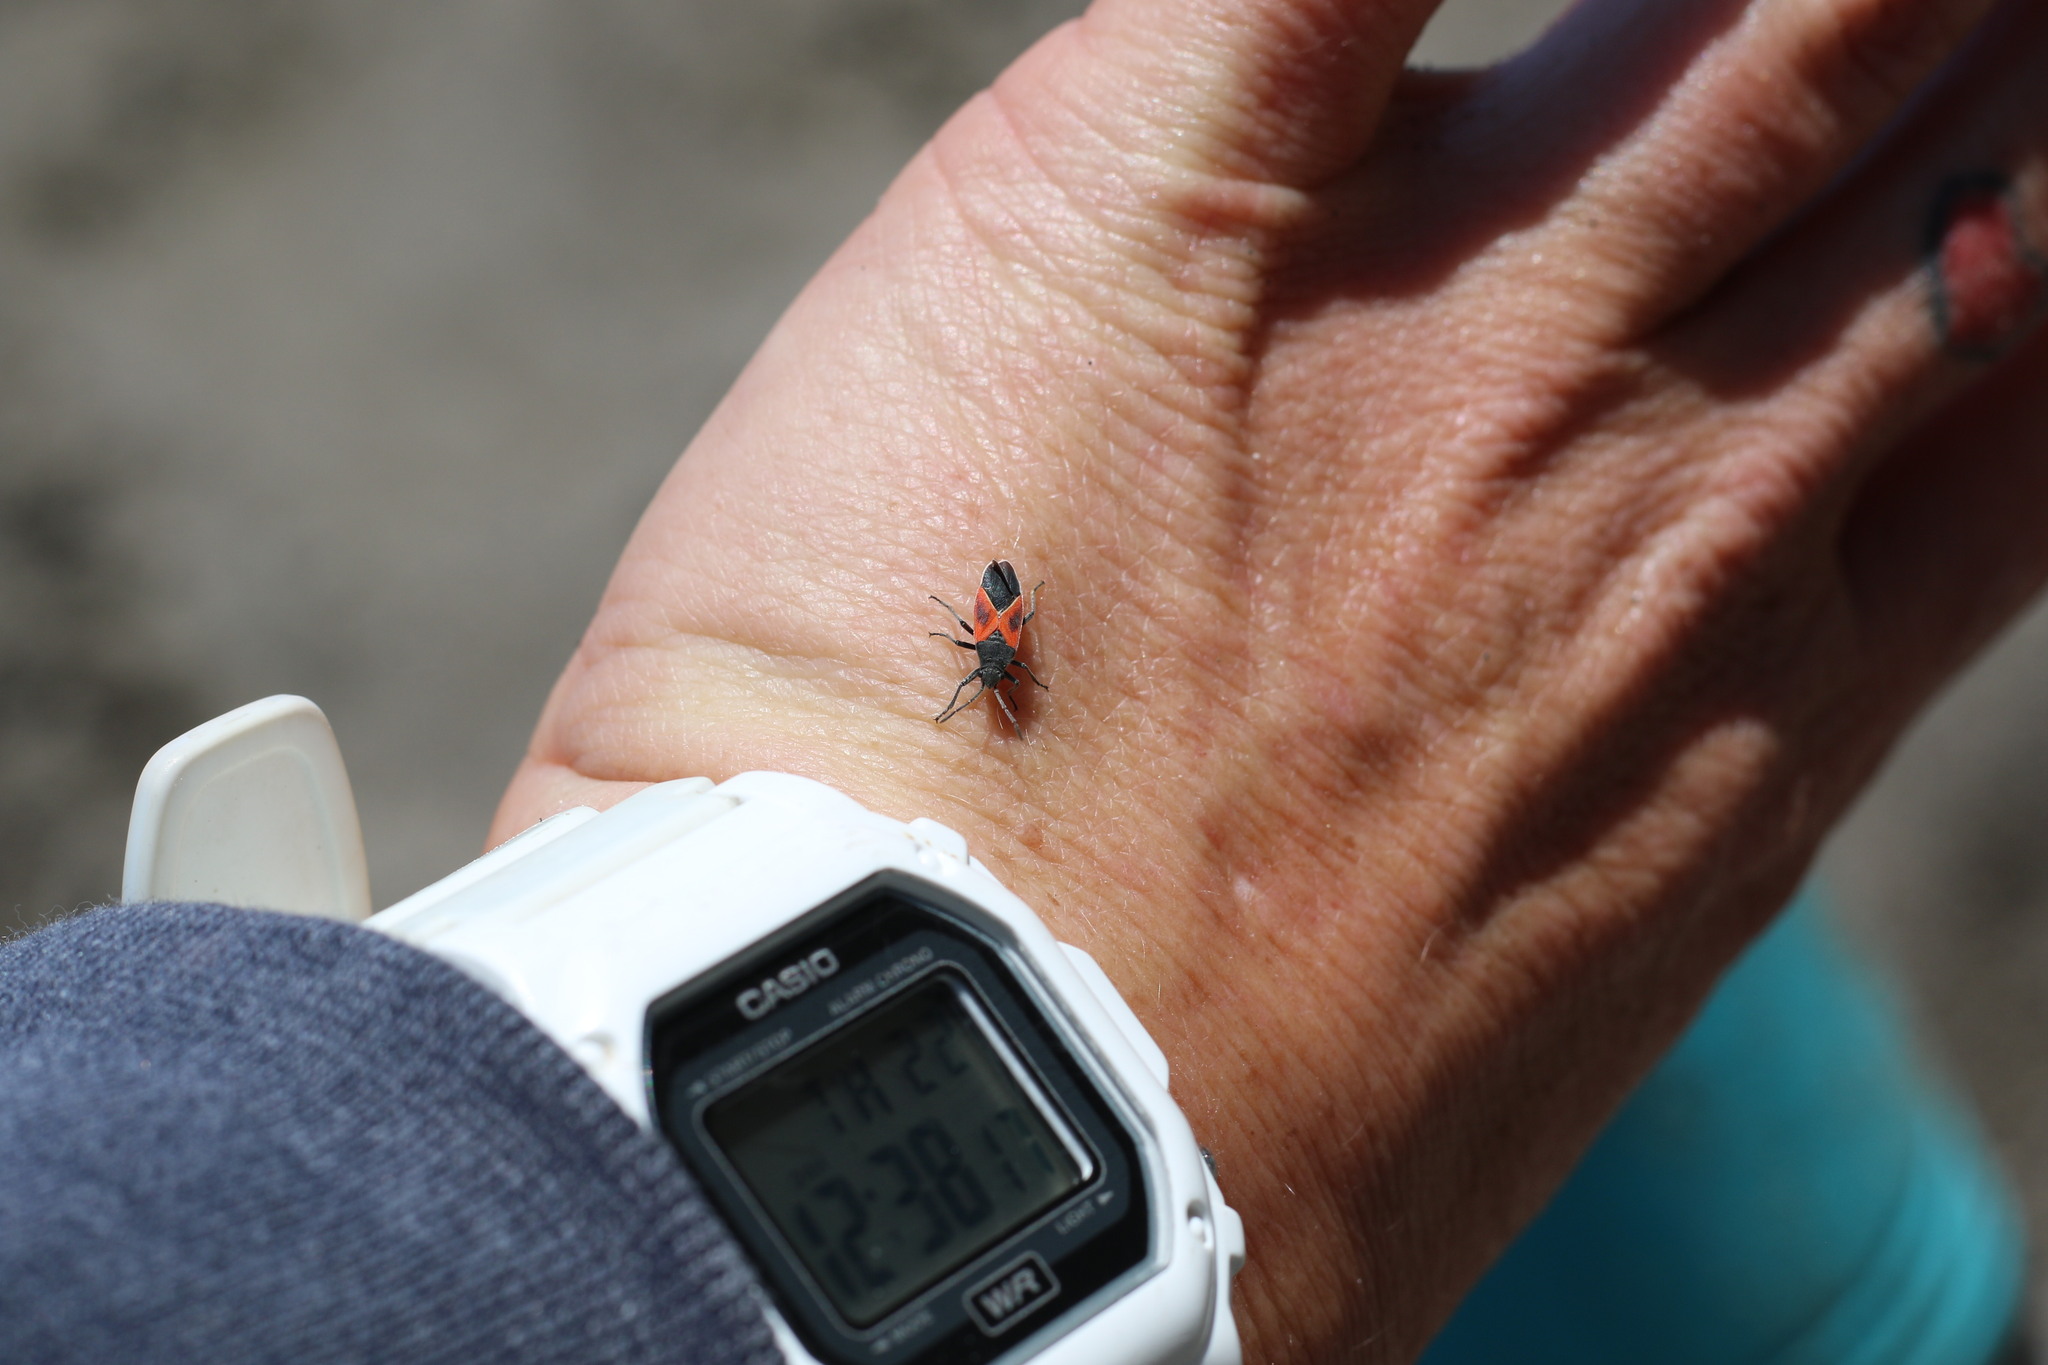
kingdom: Animalia
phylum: Arthropoda
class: Insecta
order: Hemiptera
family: Lygaeidae
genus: Melanopleurus
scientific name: Melanopleurus fuscosus
